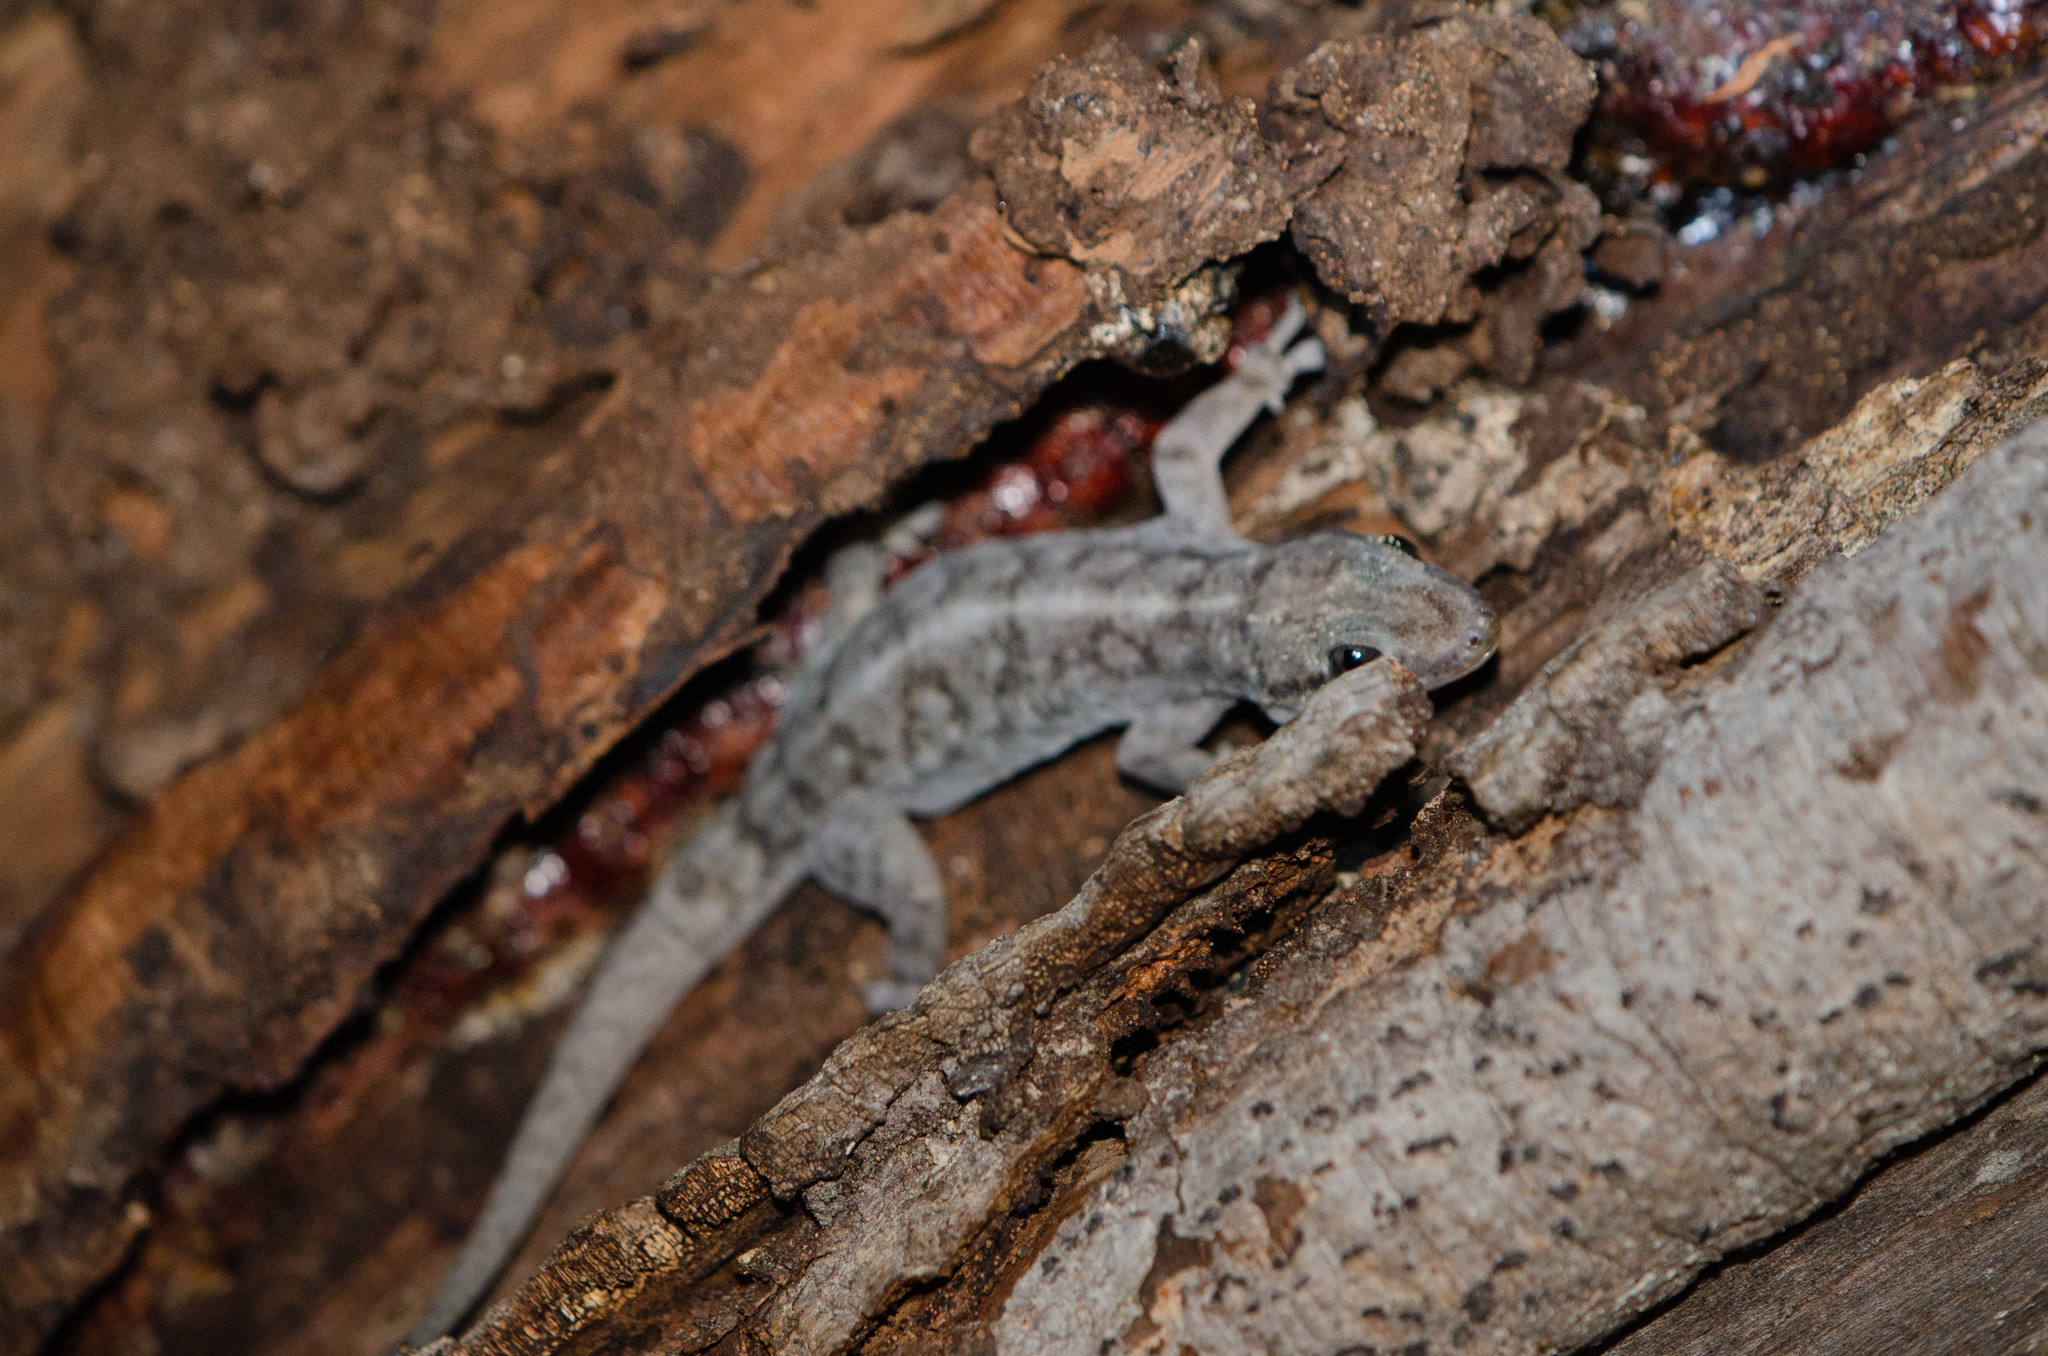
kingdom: Animalia
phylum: Chordata
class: Squamata
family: Phyllodactylidae
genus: Phyllopezus
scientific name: Phyllopezus pollicaris
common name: Brazilian gecko
